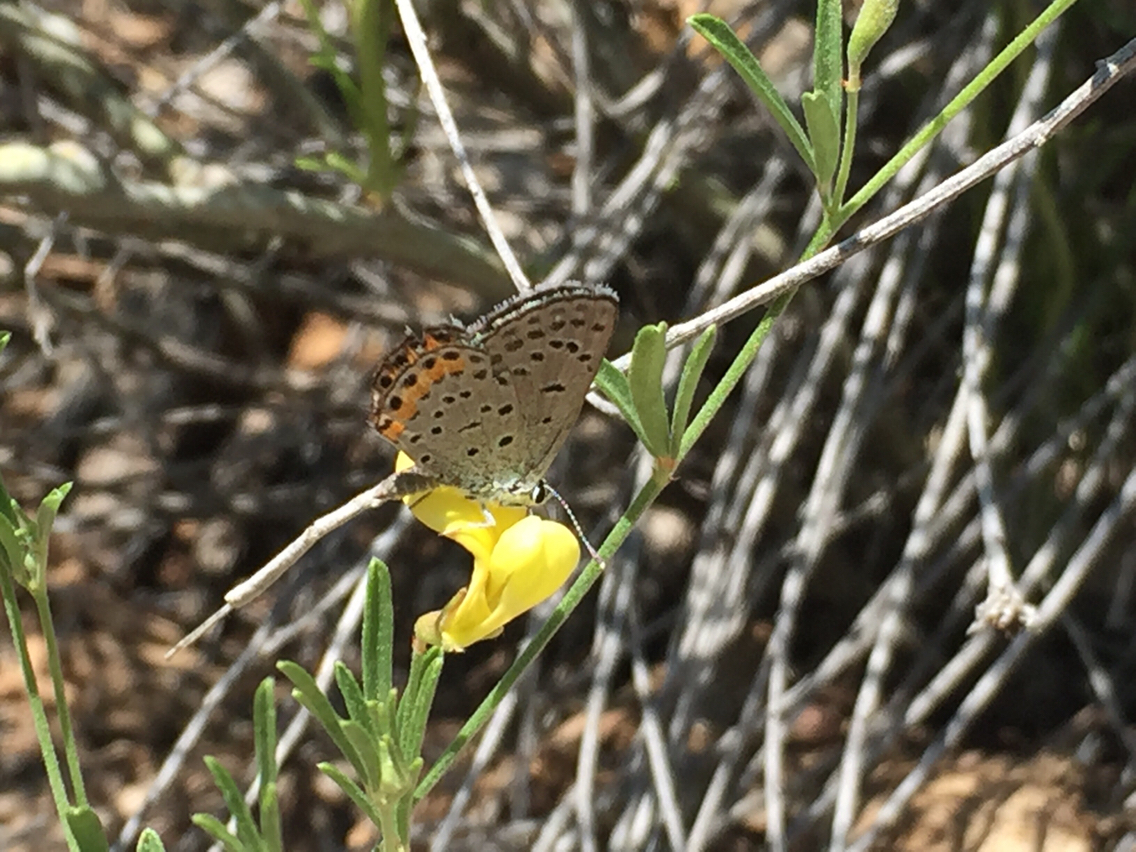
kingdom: Animalia
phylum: Arthropoda
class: Insecta
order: Lepidoptera
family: Lycaenidae
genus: Icaricia
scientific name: Icaricia lupini
